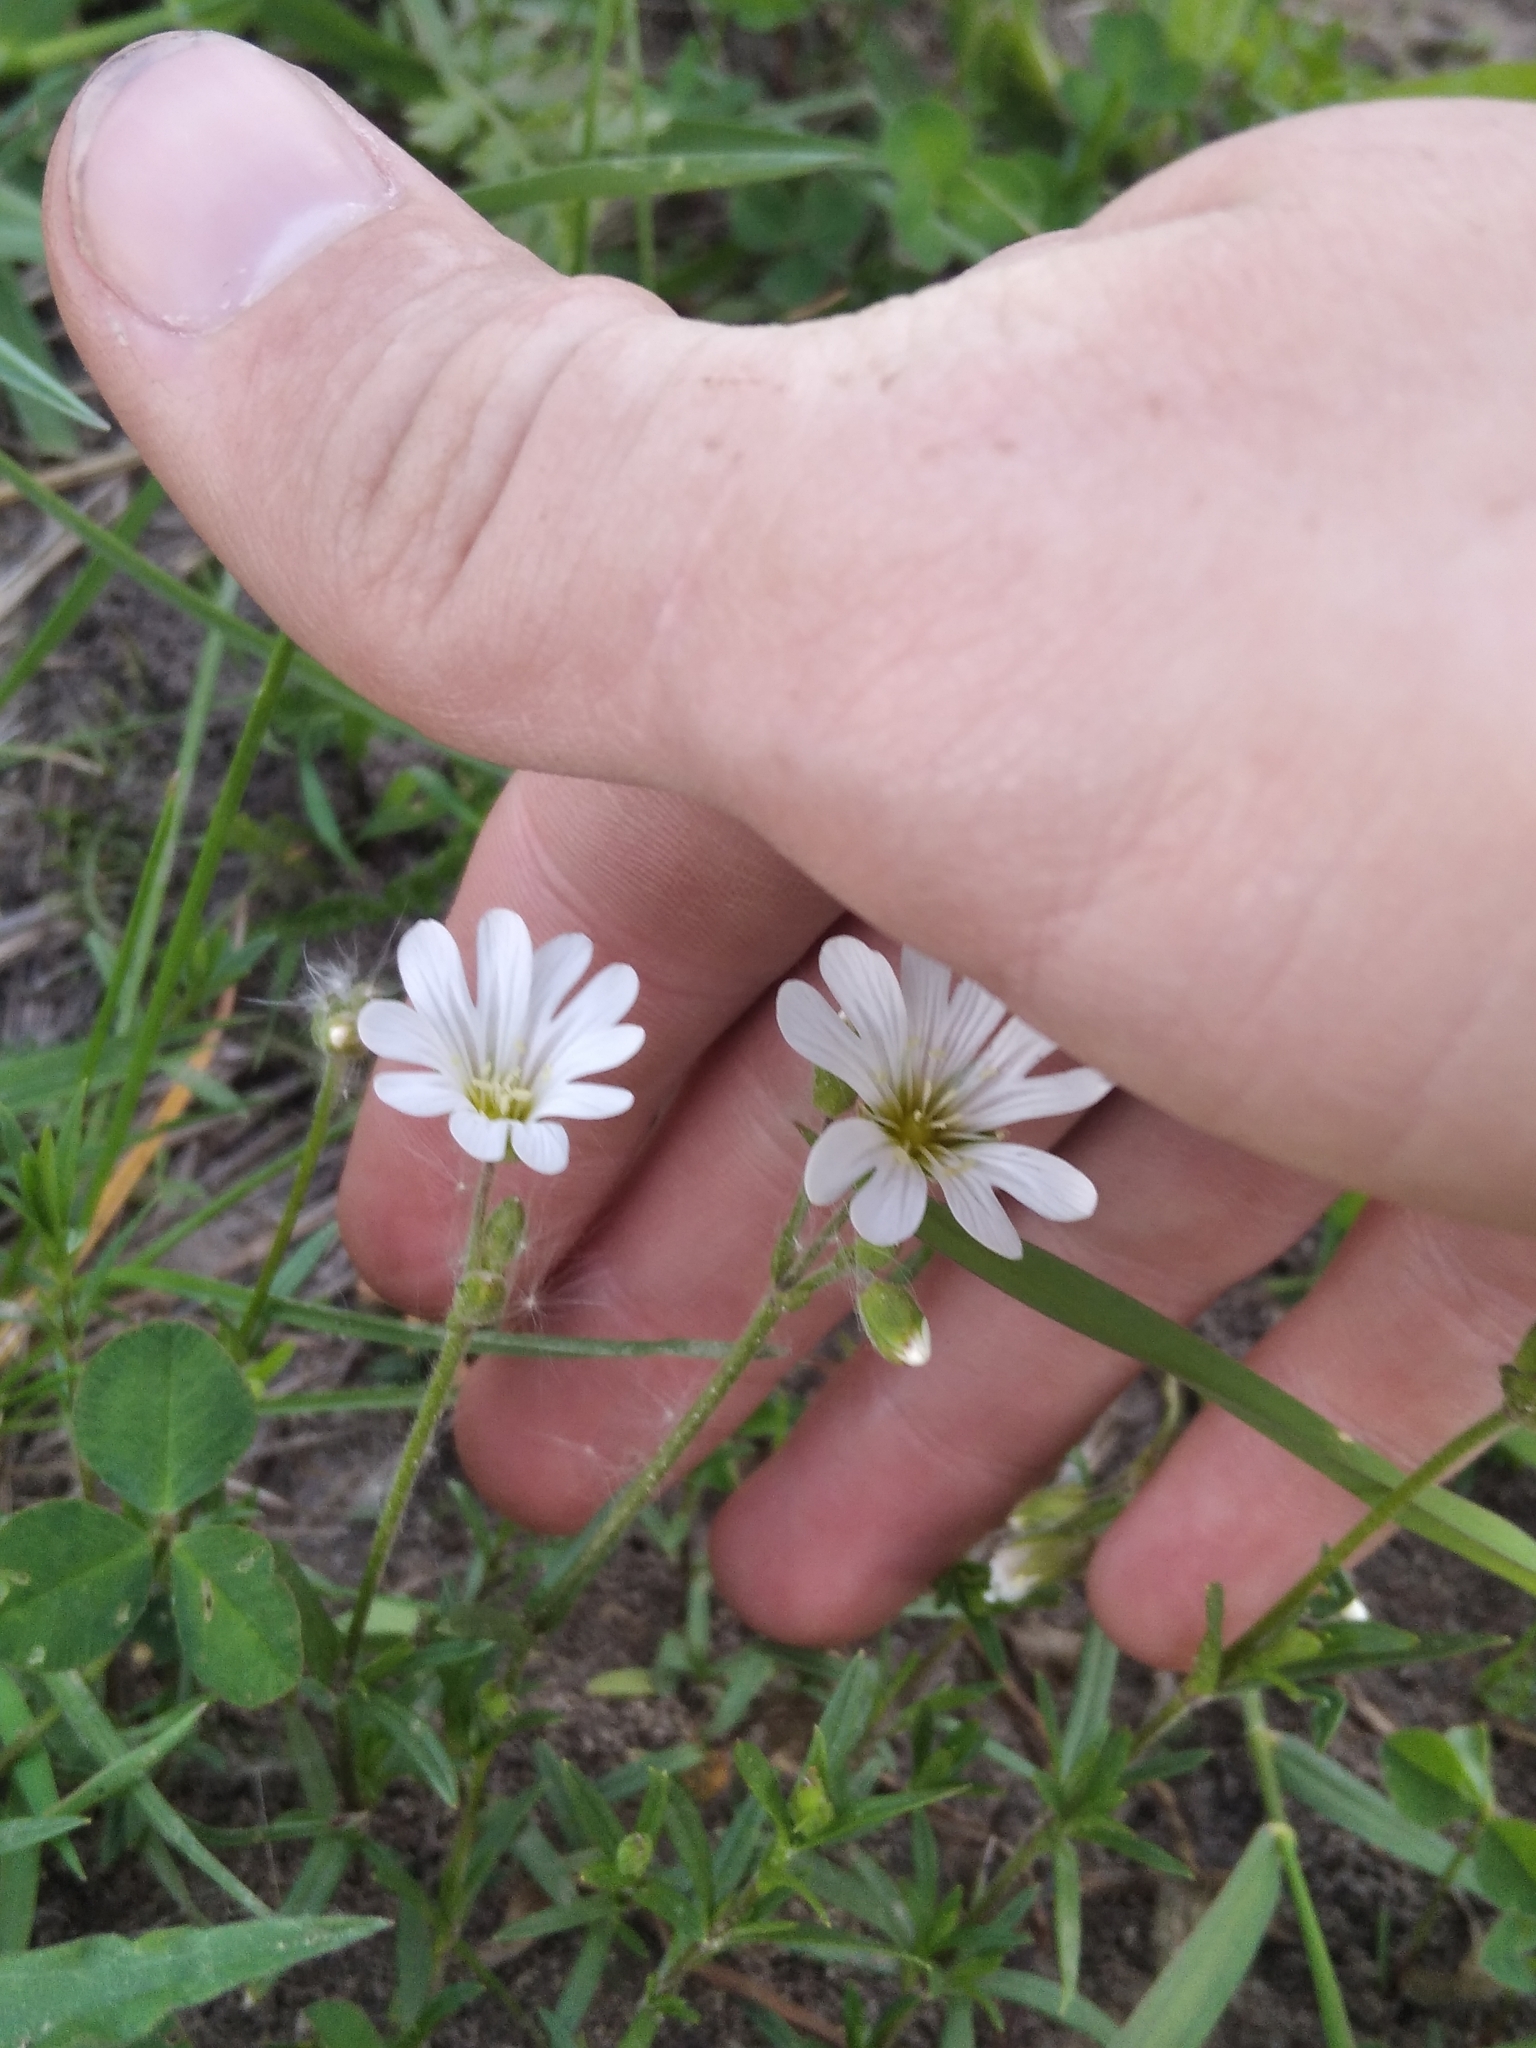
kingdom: Plantae
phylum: Tracheophyta
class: Magnoliopsida
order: Caryophyllales
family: Caryophyllaceae
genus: Cerastium
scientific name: Cerastium arvense
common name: Field mouse-ear
